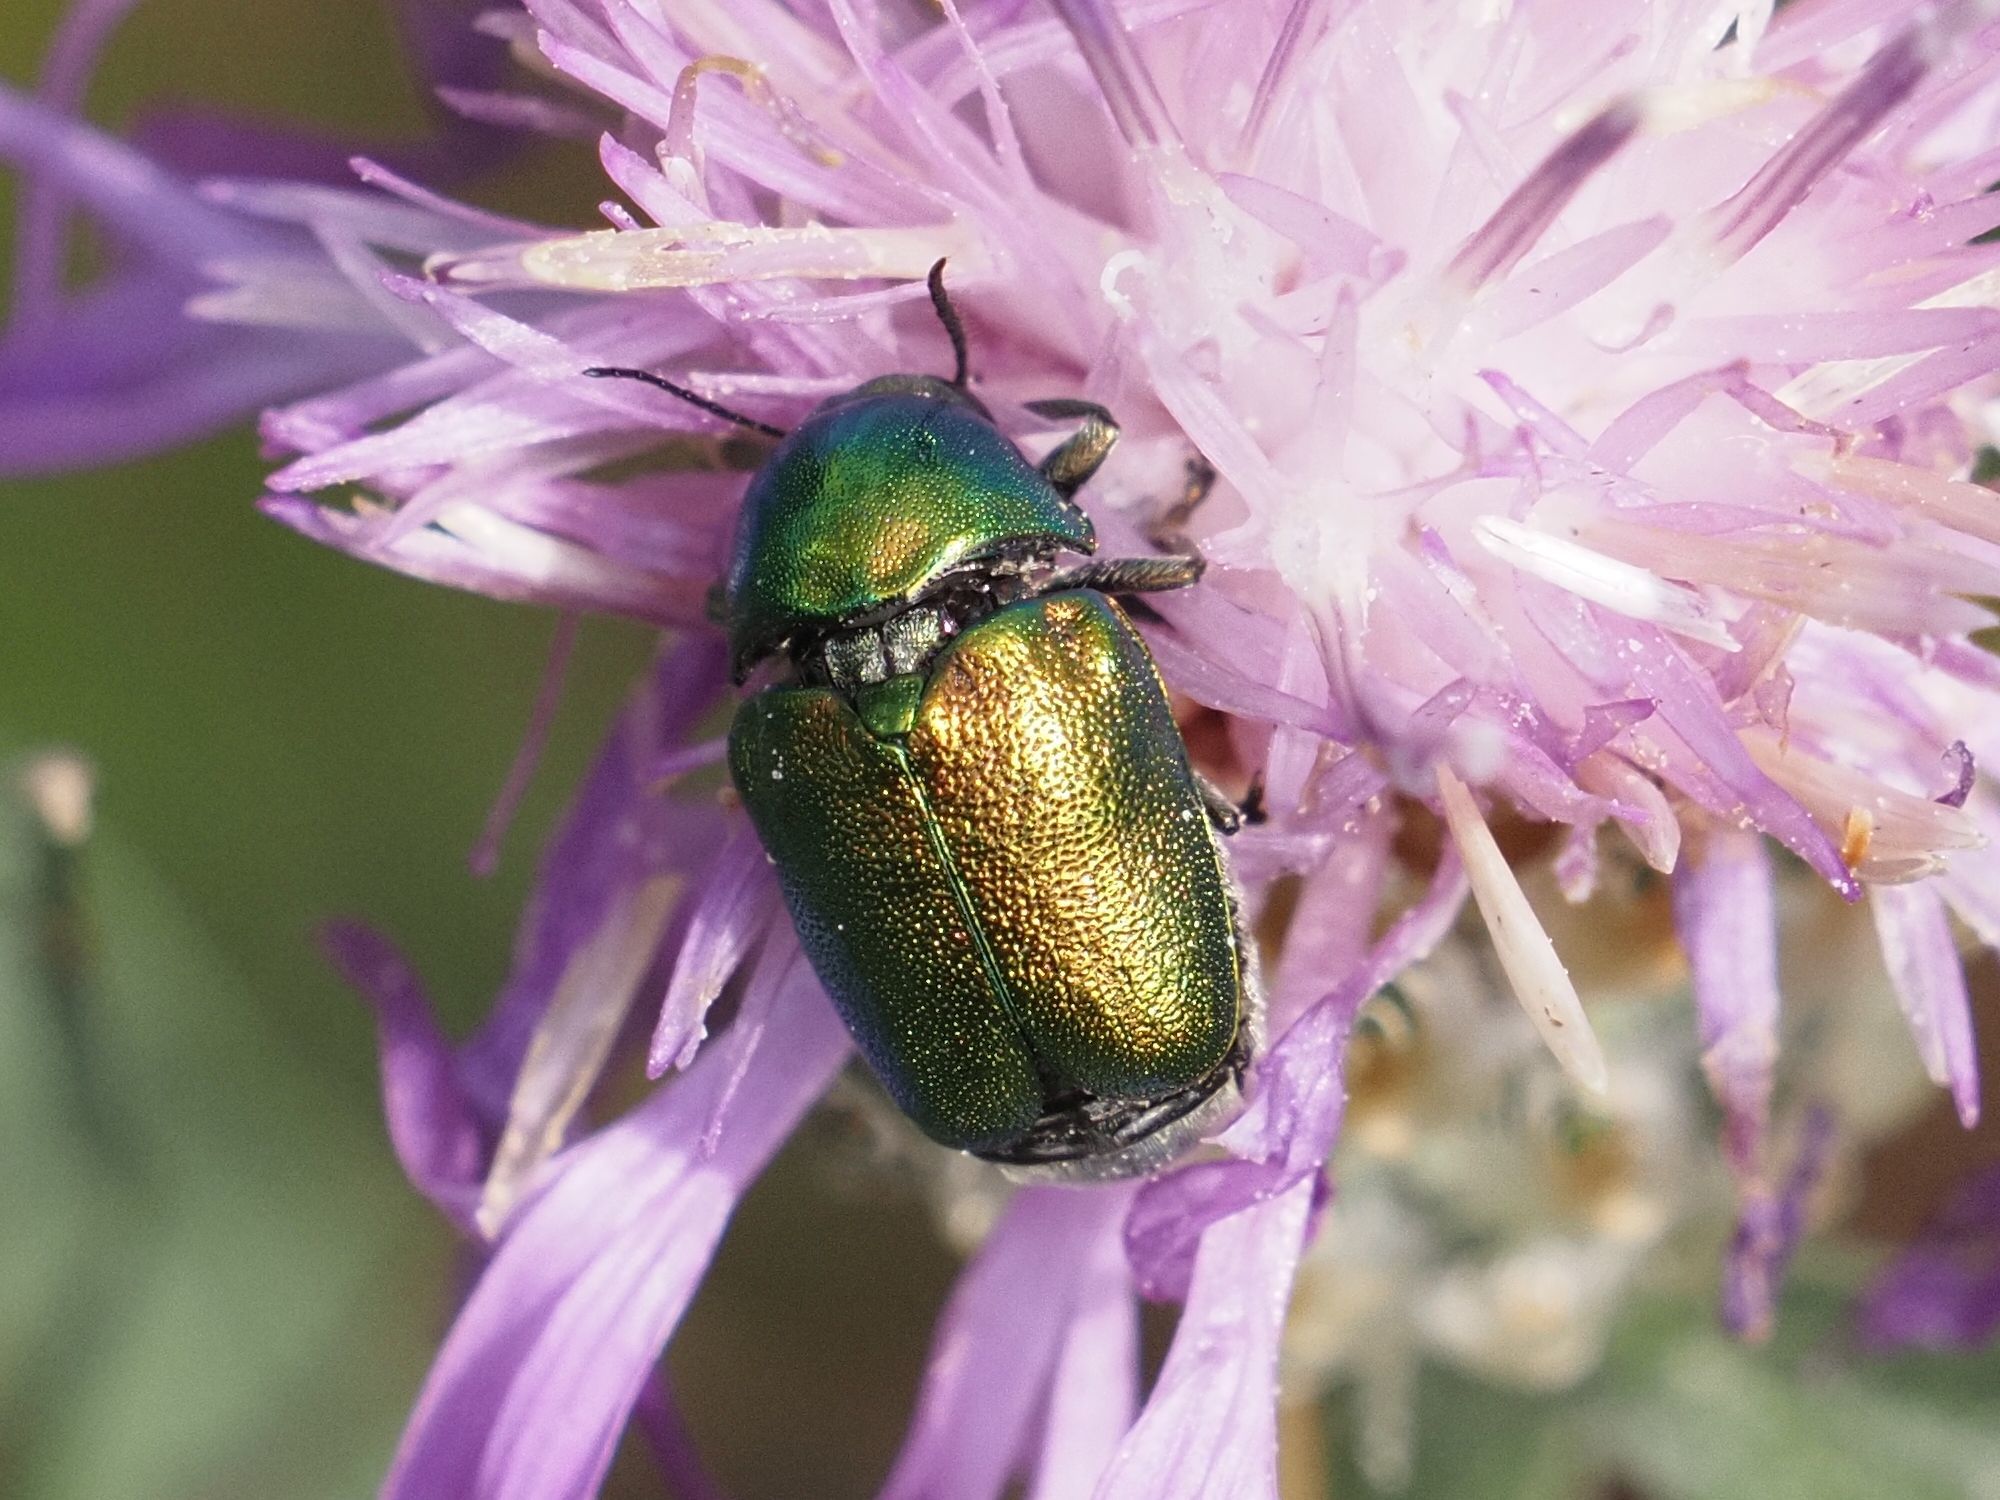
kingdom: Animalia
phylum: Arthropoda
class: Insecta
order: Coleoptera
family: Chrysomelidae
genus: Cryptocephalus
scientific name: Cryptocephalus
